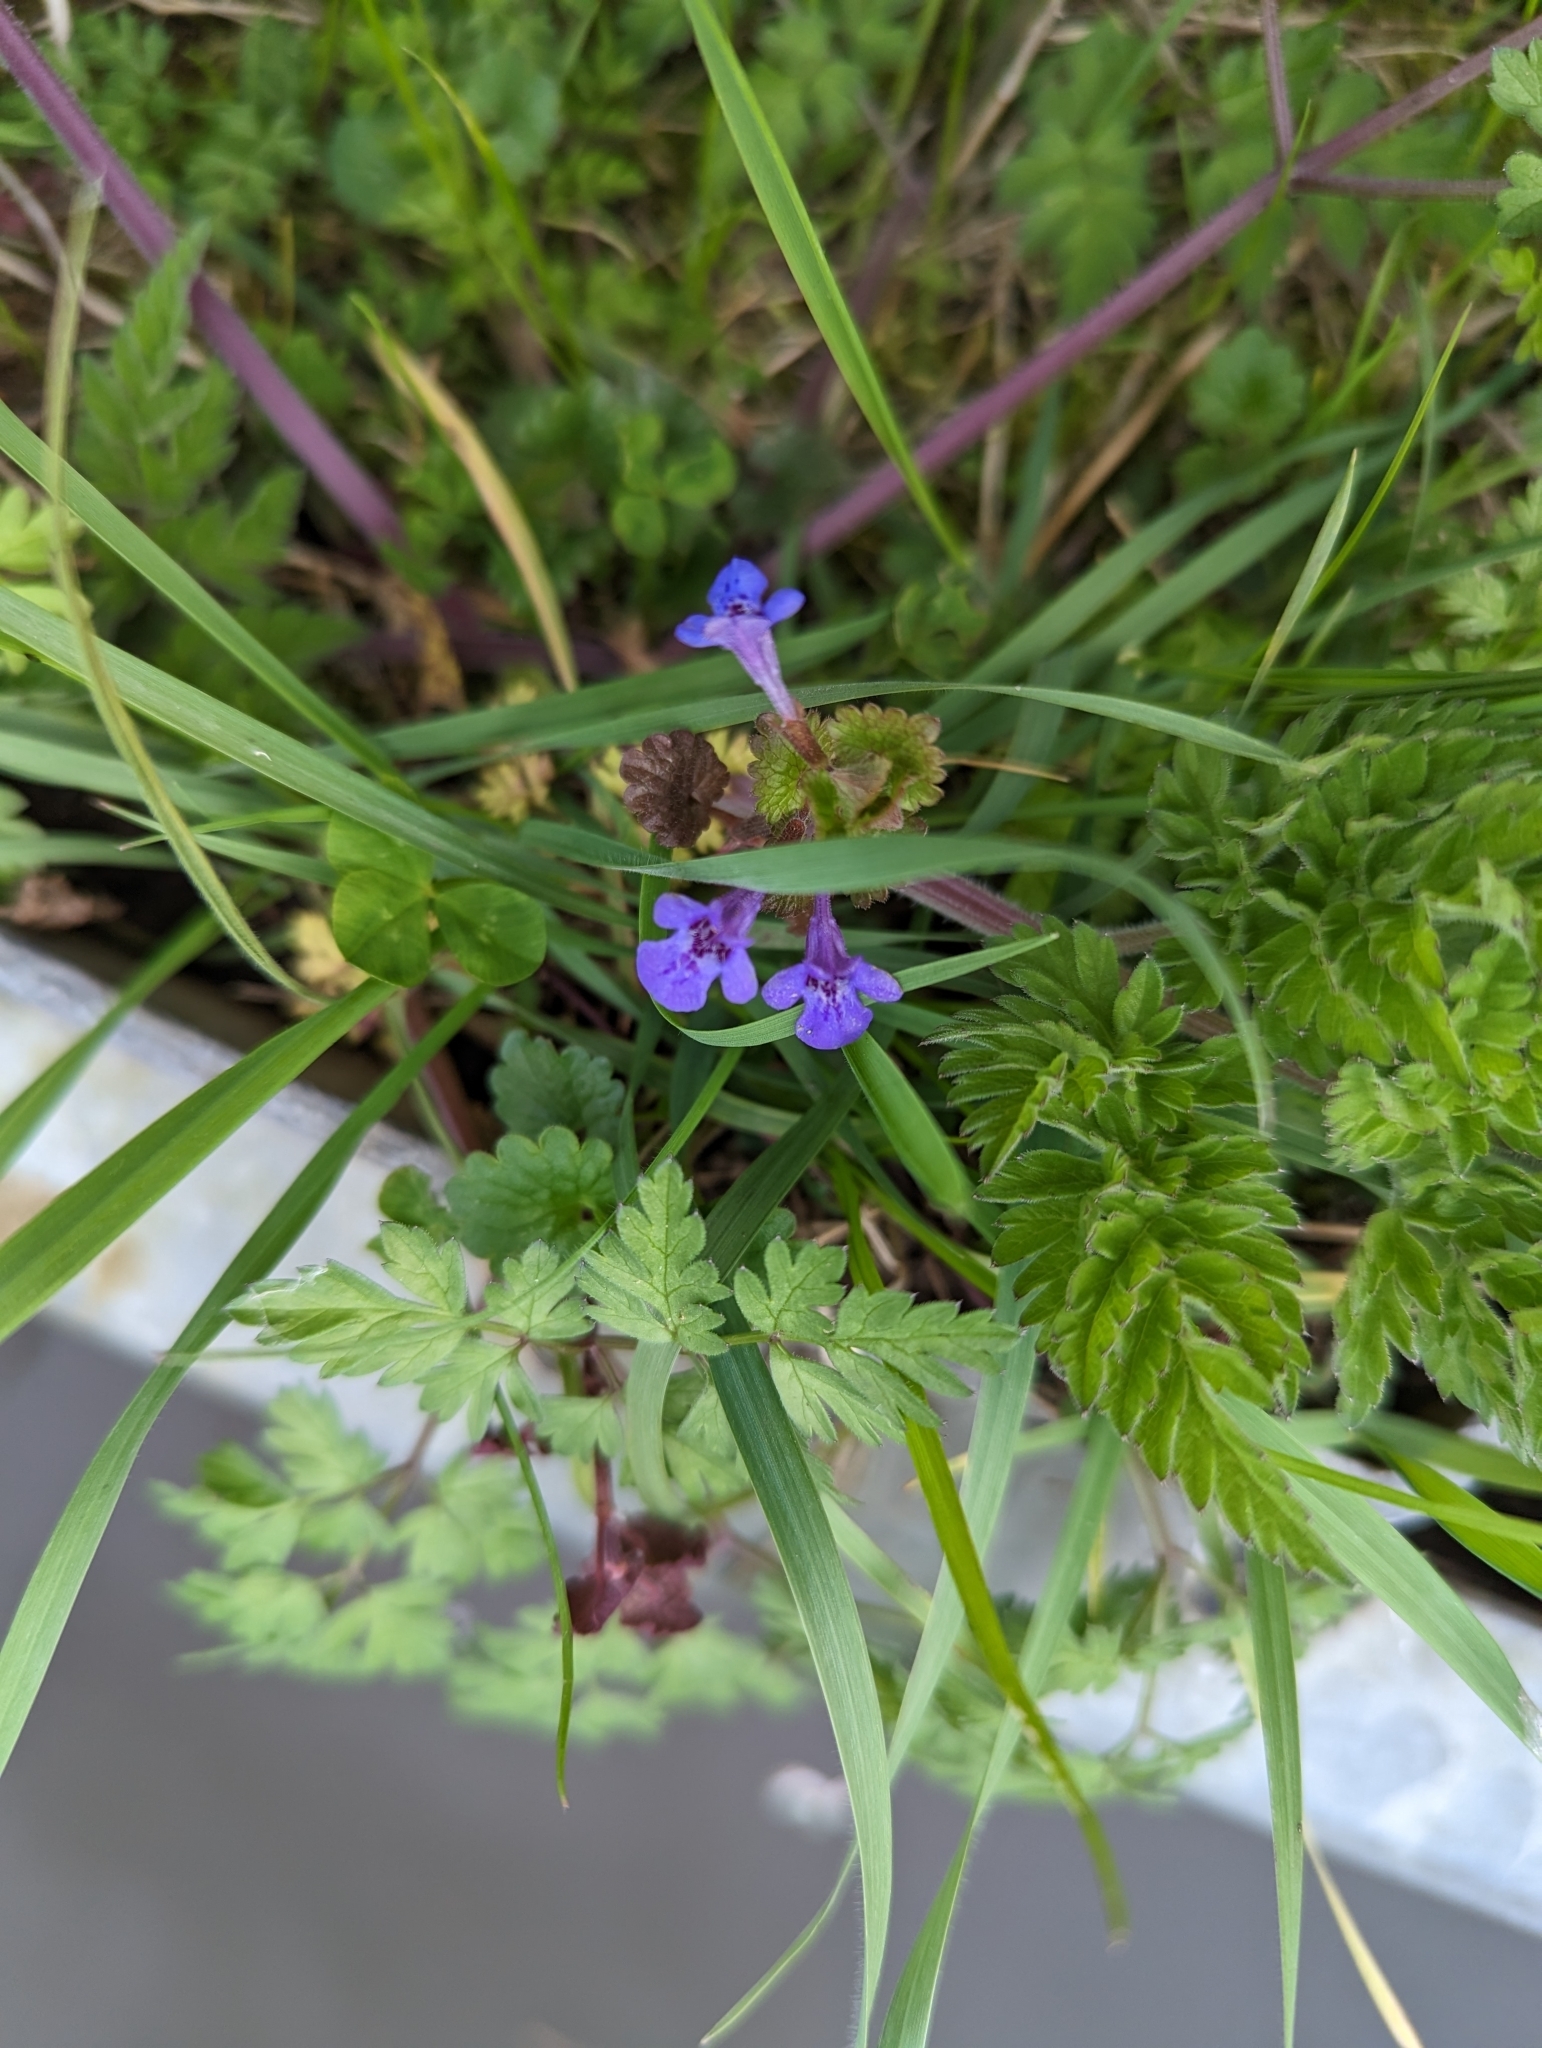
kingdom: Plantae
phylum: Tracheophyta
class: Magnoliopsida
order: Lamiales
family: Lamiaceae
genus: Glechoma
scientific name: Glechoma hederacea
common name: Ground ivy
